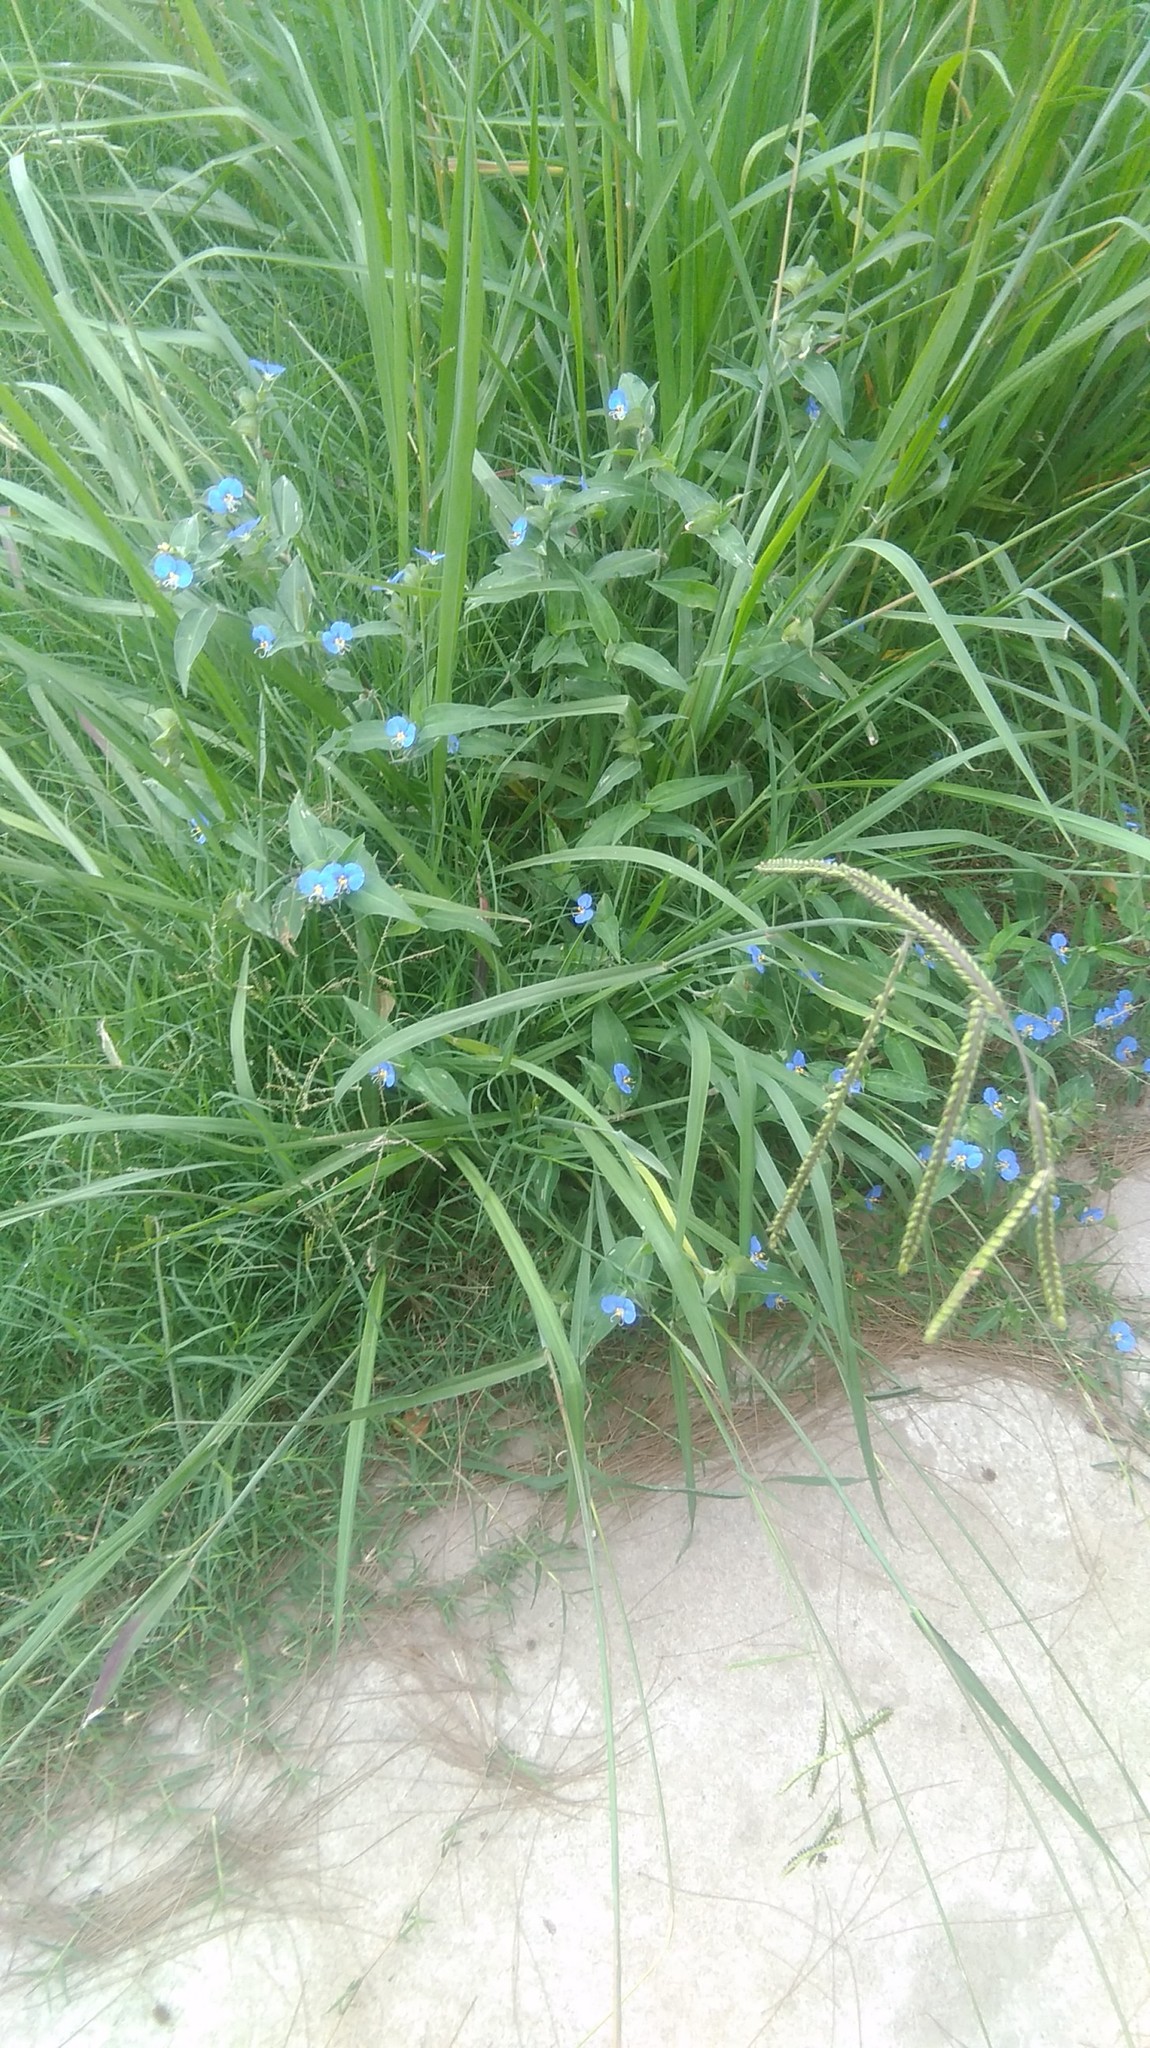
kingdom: Plantae
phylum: Tracheophyta
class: Liliopsida
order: Commelinales
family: Commelinaceae
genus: Commelina
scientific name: Commelina erecta
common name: Blousel blommetjie
